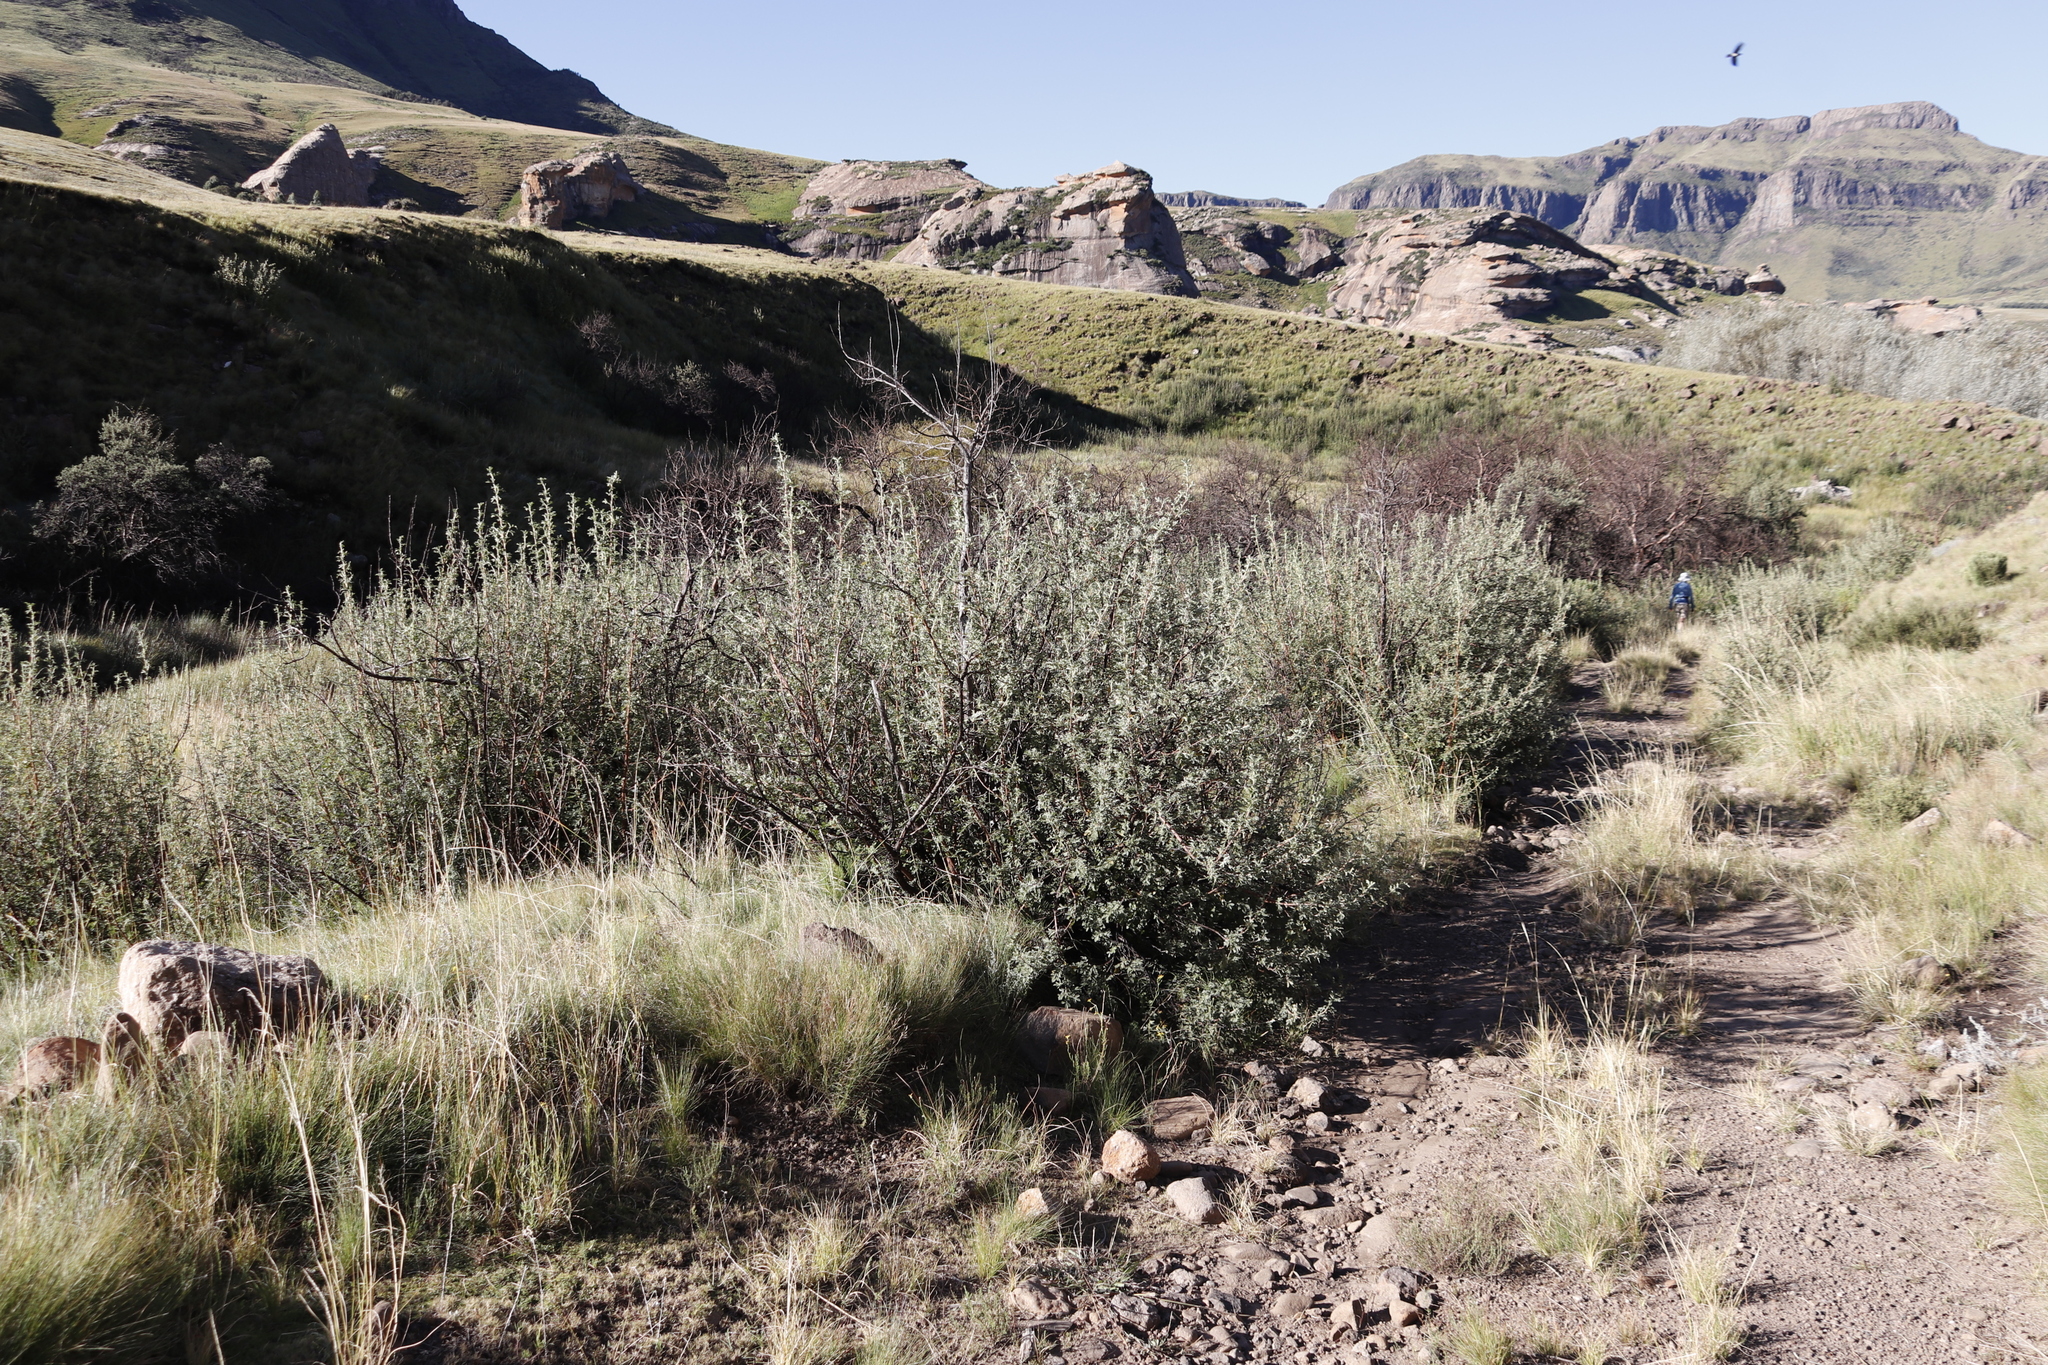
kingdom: Plantae
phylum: Tracheophyta
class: Magnoliopsida
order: Rosales
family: Rosaceae
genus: Leucosidea
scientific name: Leucosidea sericea
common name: Oldwood
